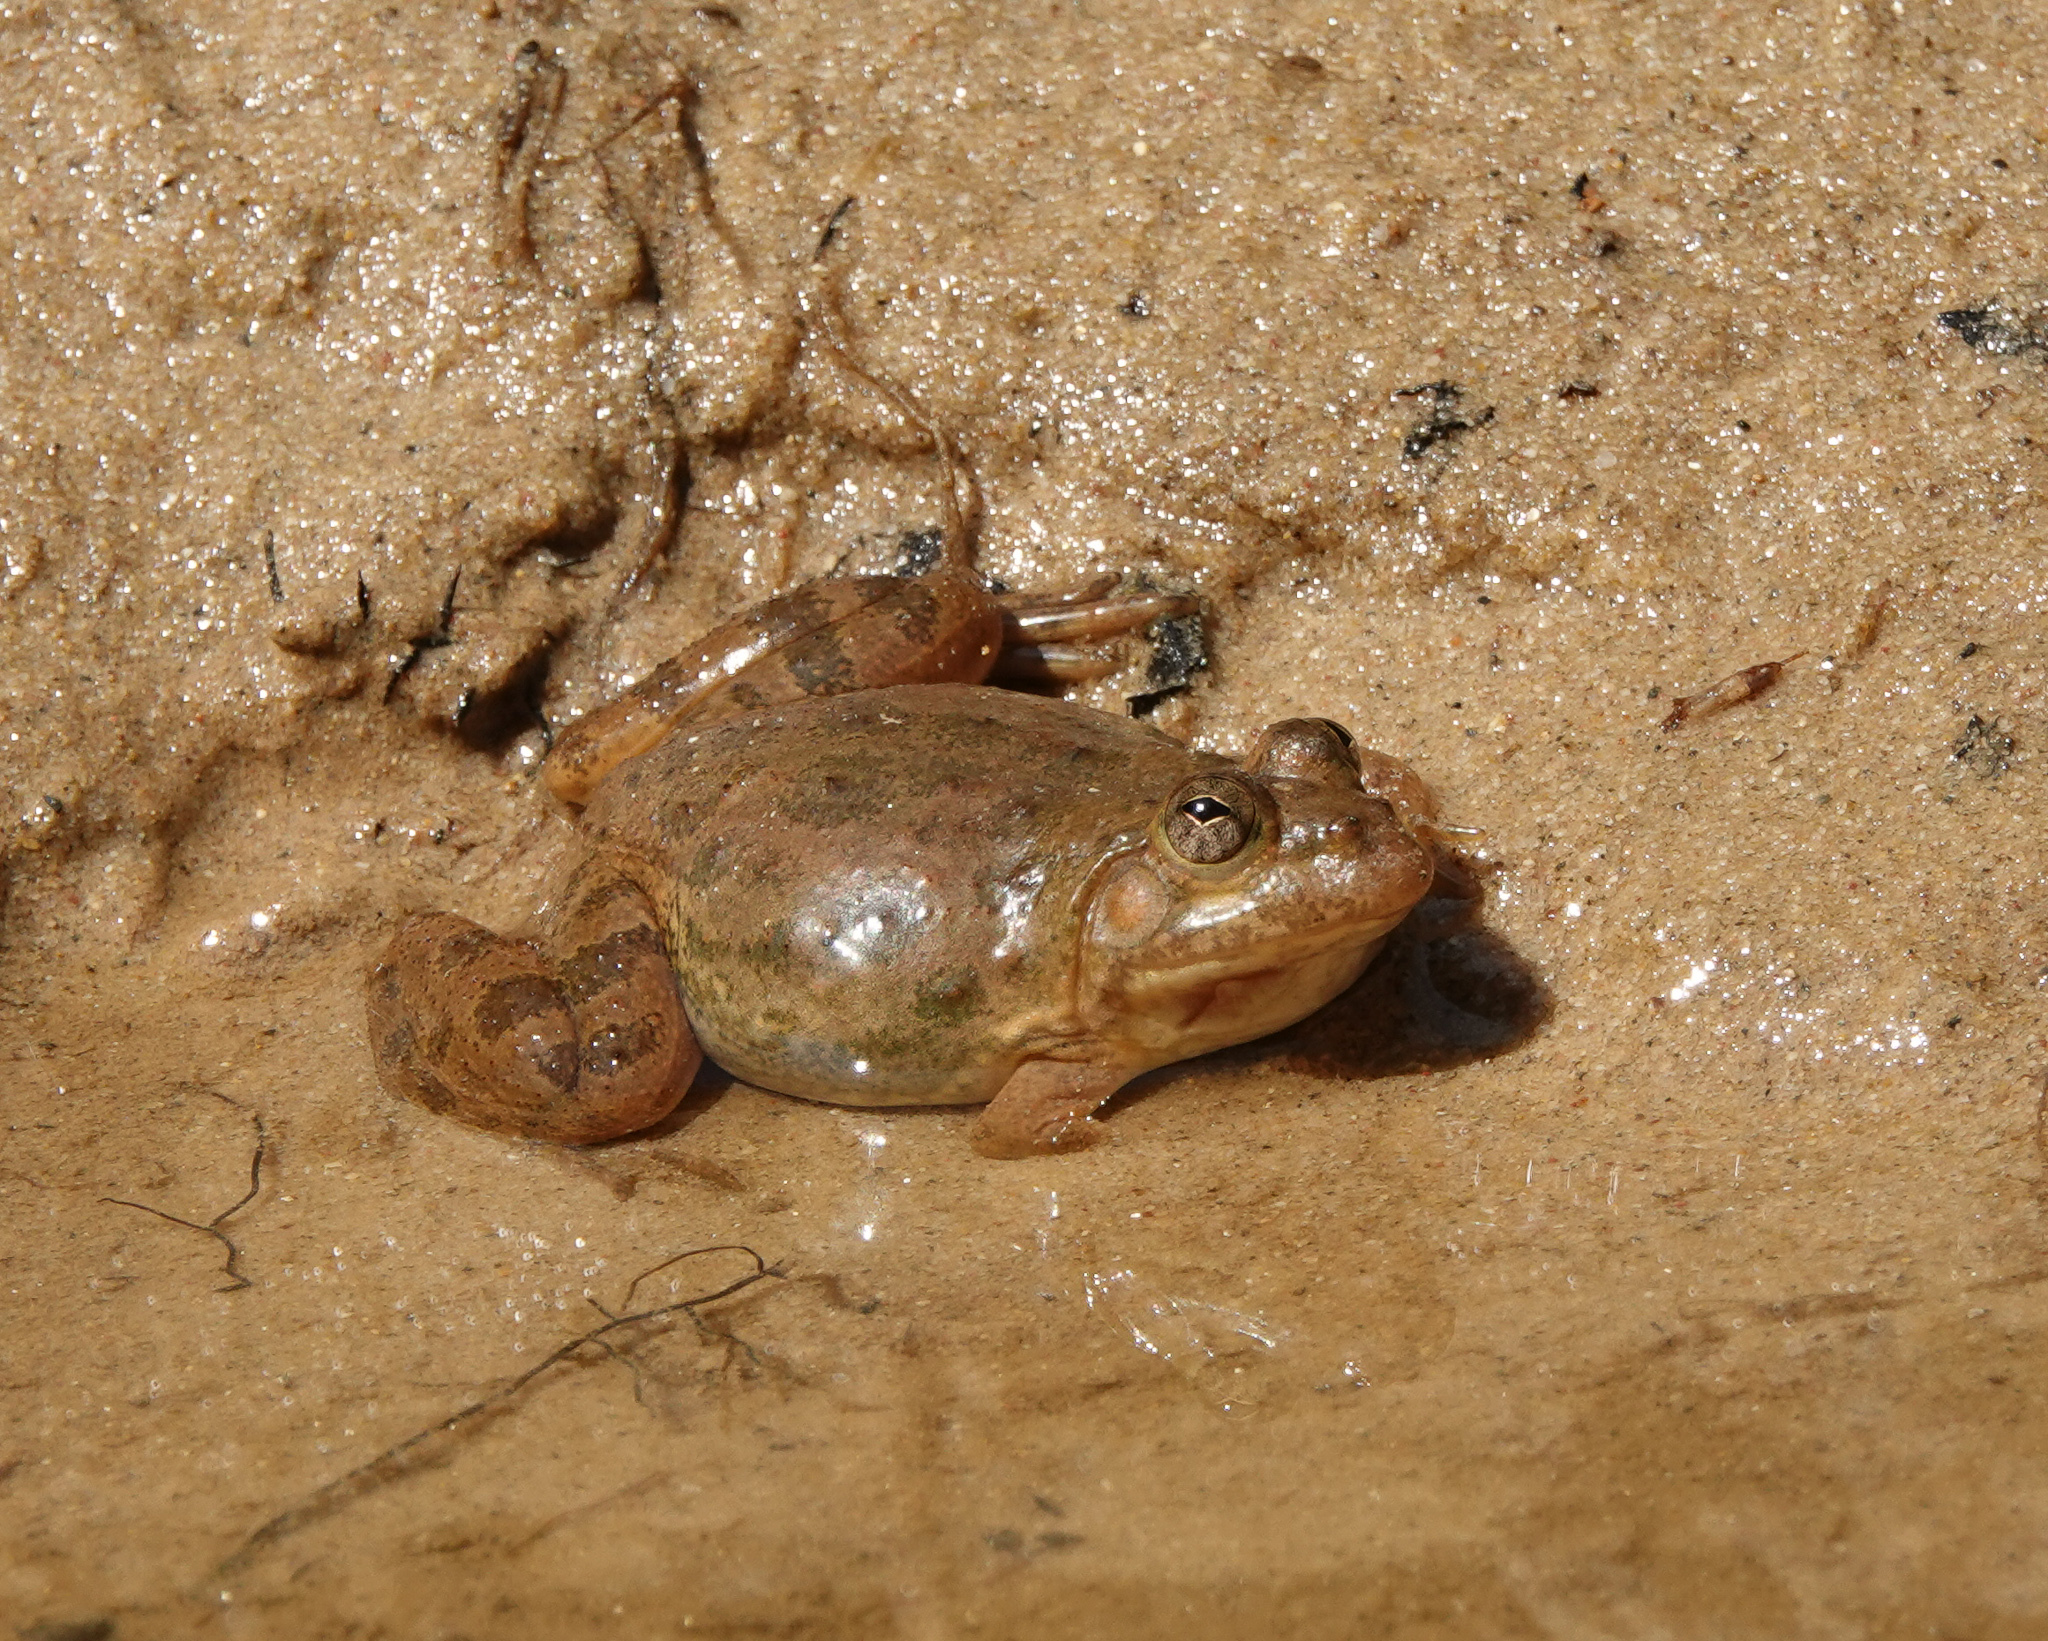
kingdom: Animalia
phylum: Chordata
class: Amphibia
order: Anura
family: Dicroglossidae
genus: Euphlyctis
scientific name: Euphlyctis cyanophlyctis
